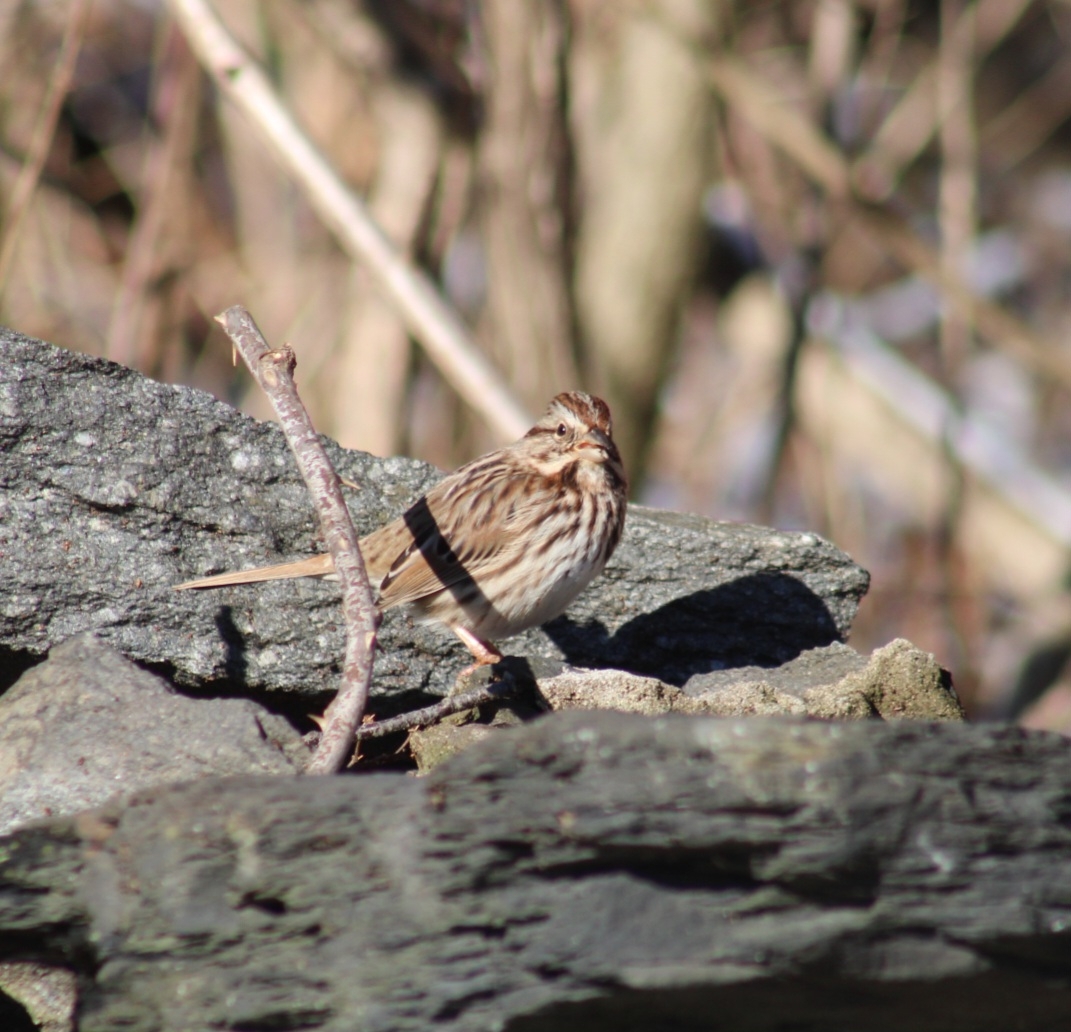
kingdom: Animalia
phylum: Chordata
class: Aves
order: Passeriformes
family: Passerellidae
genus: Melospiza
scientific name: Melospiza melodia
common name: Song sparrow
